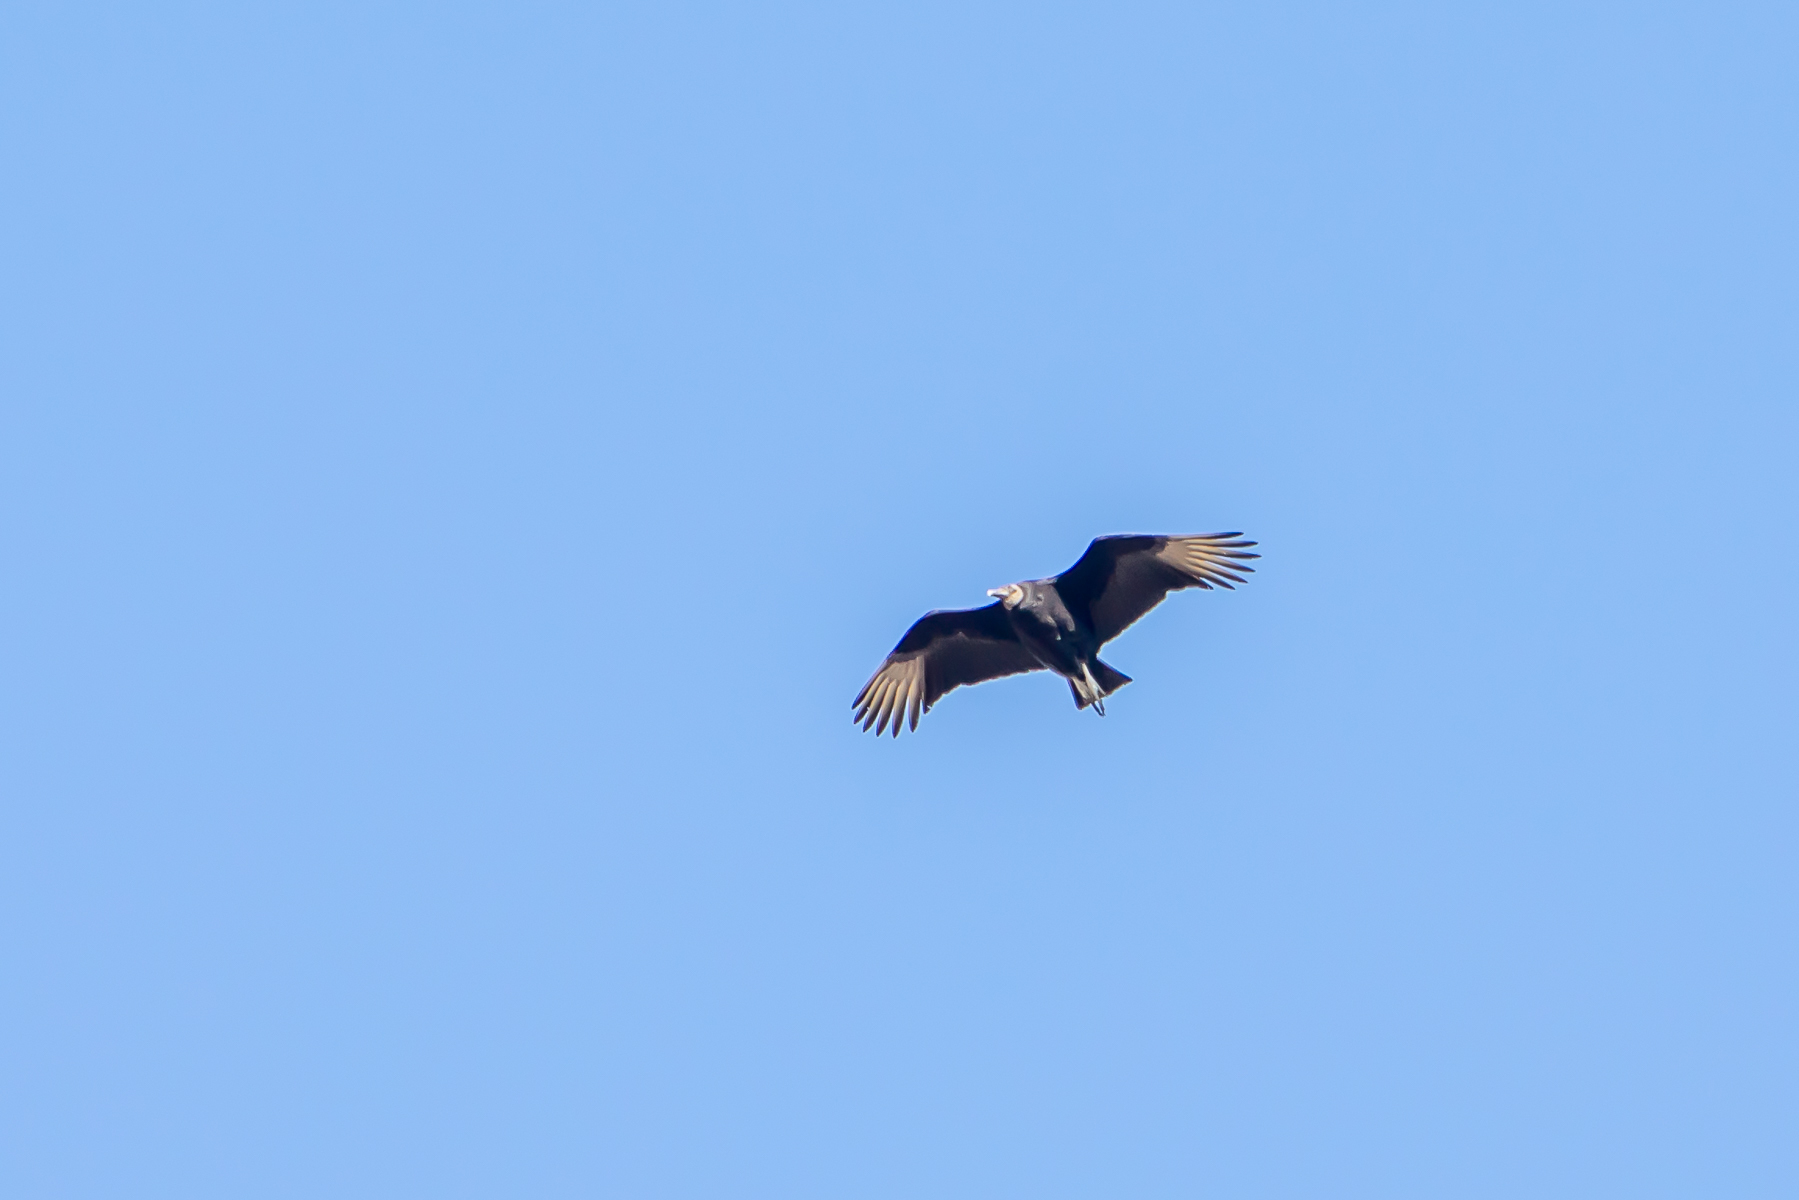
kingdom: Animalia
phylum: Chordata
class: Aves
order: Accipitriformes
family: Cathartidae
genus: Coragyps
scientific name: Coragyps atratus
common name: Black vulture
